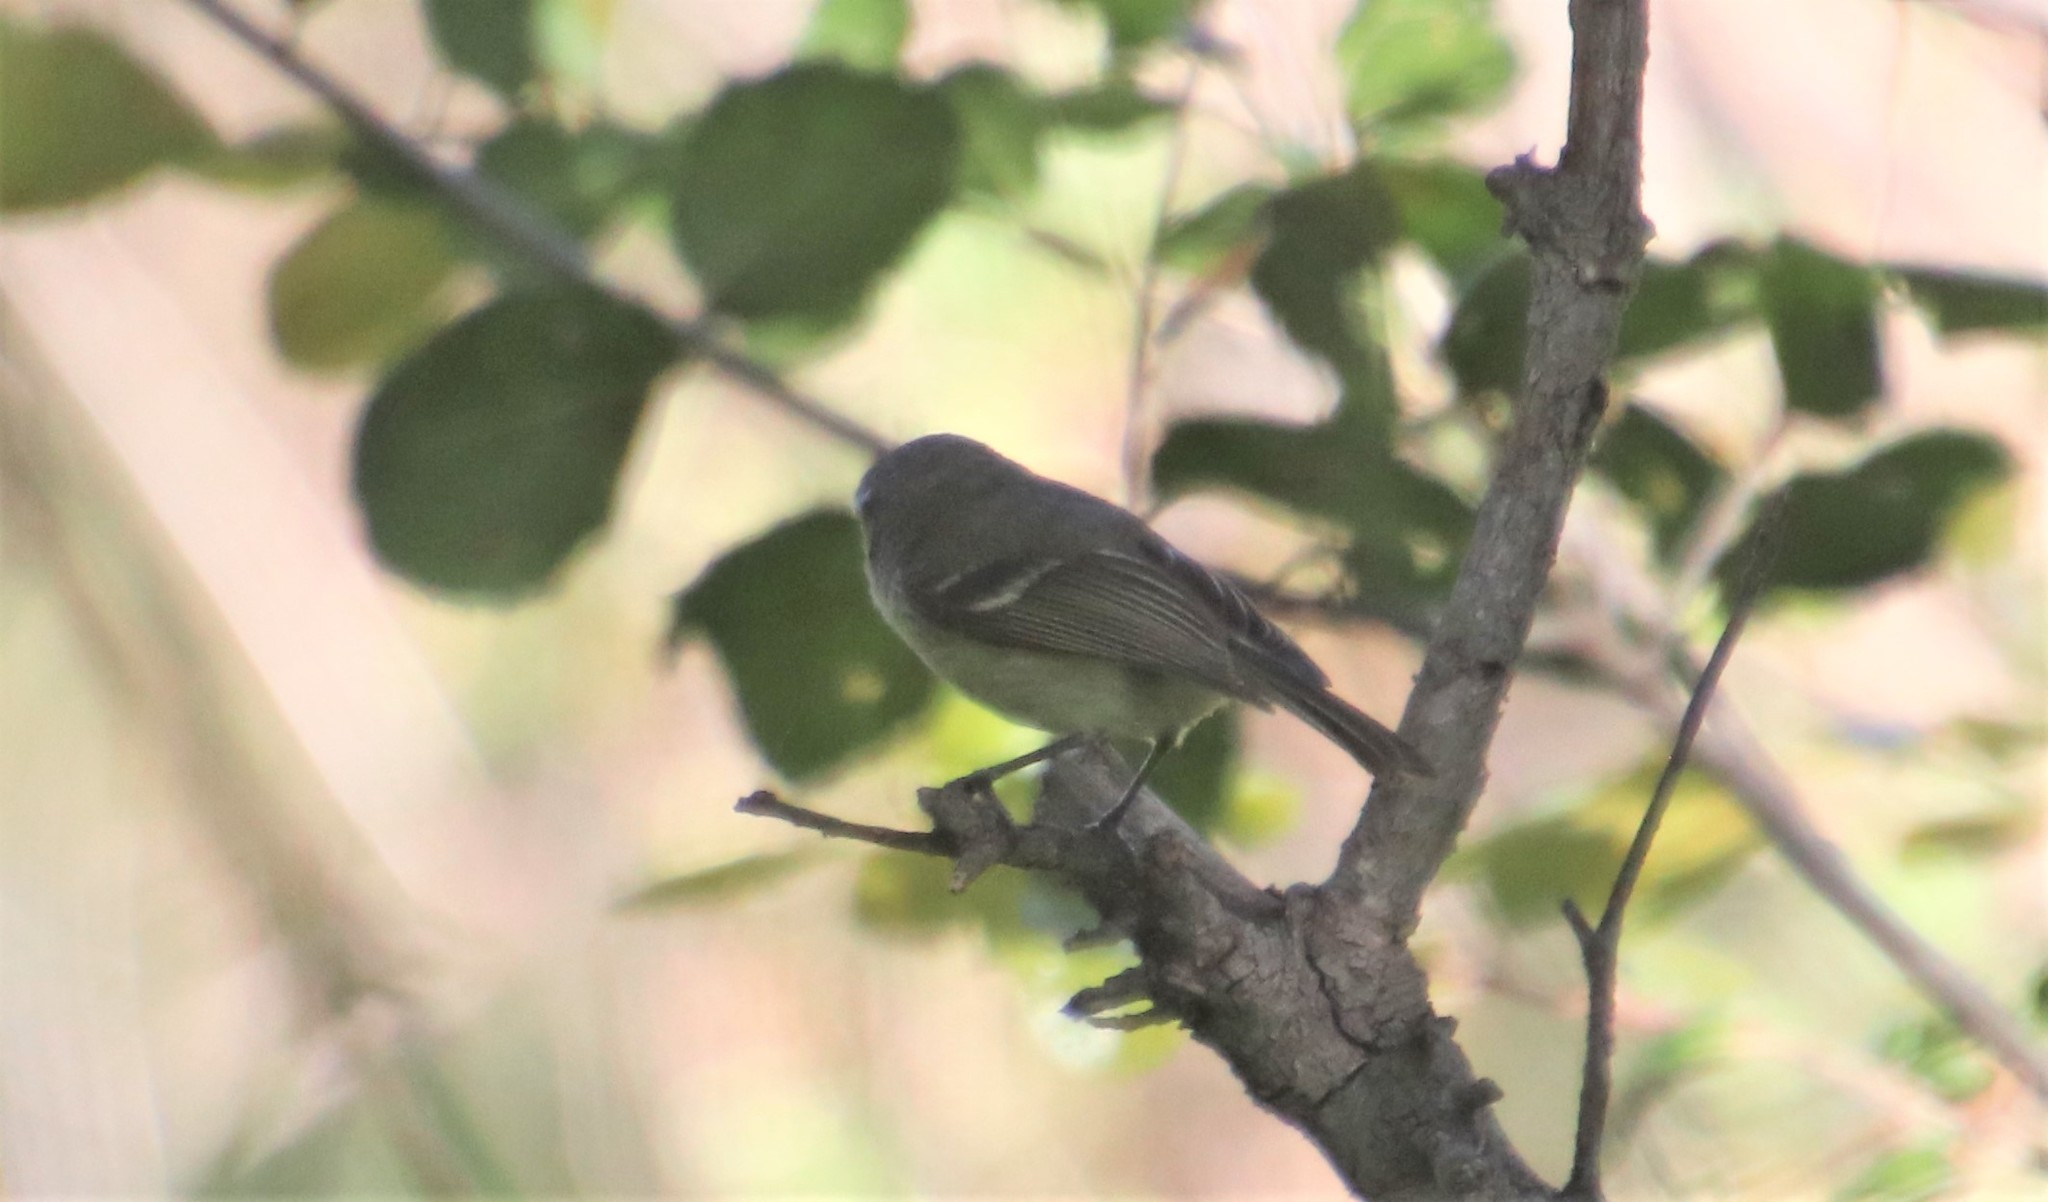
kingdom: Animalia
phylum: Chordata
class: Aves
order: Passeriformes
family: Vireonidae
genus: Vireo
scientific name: Vireo huttoni
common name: Hutton's vireo
